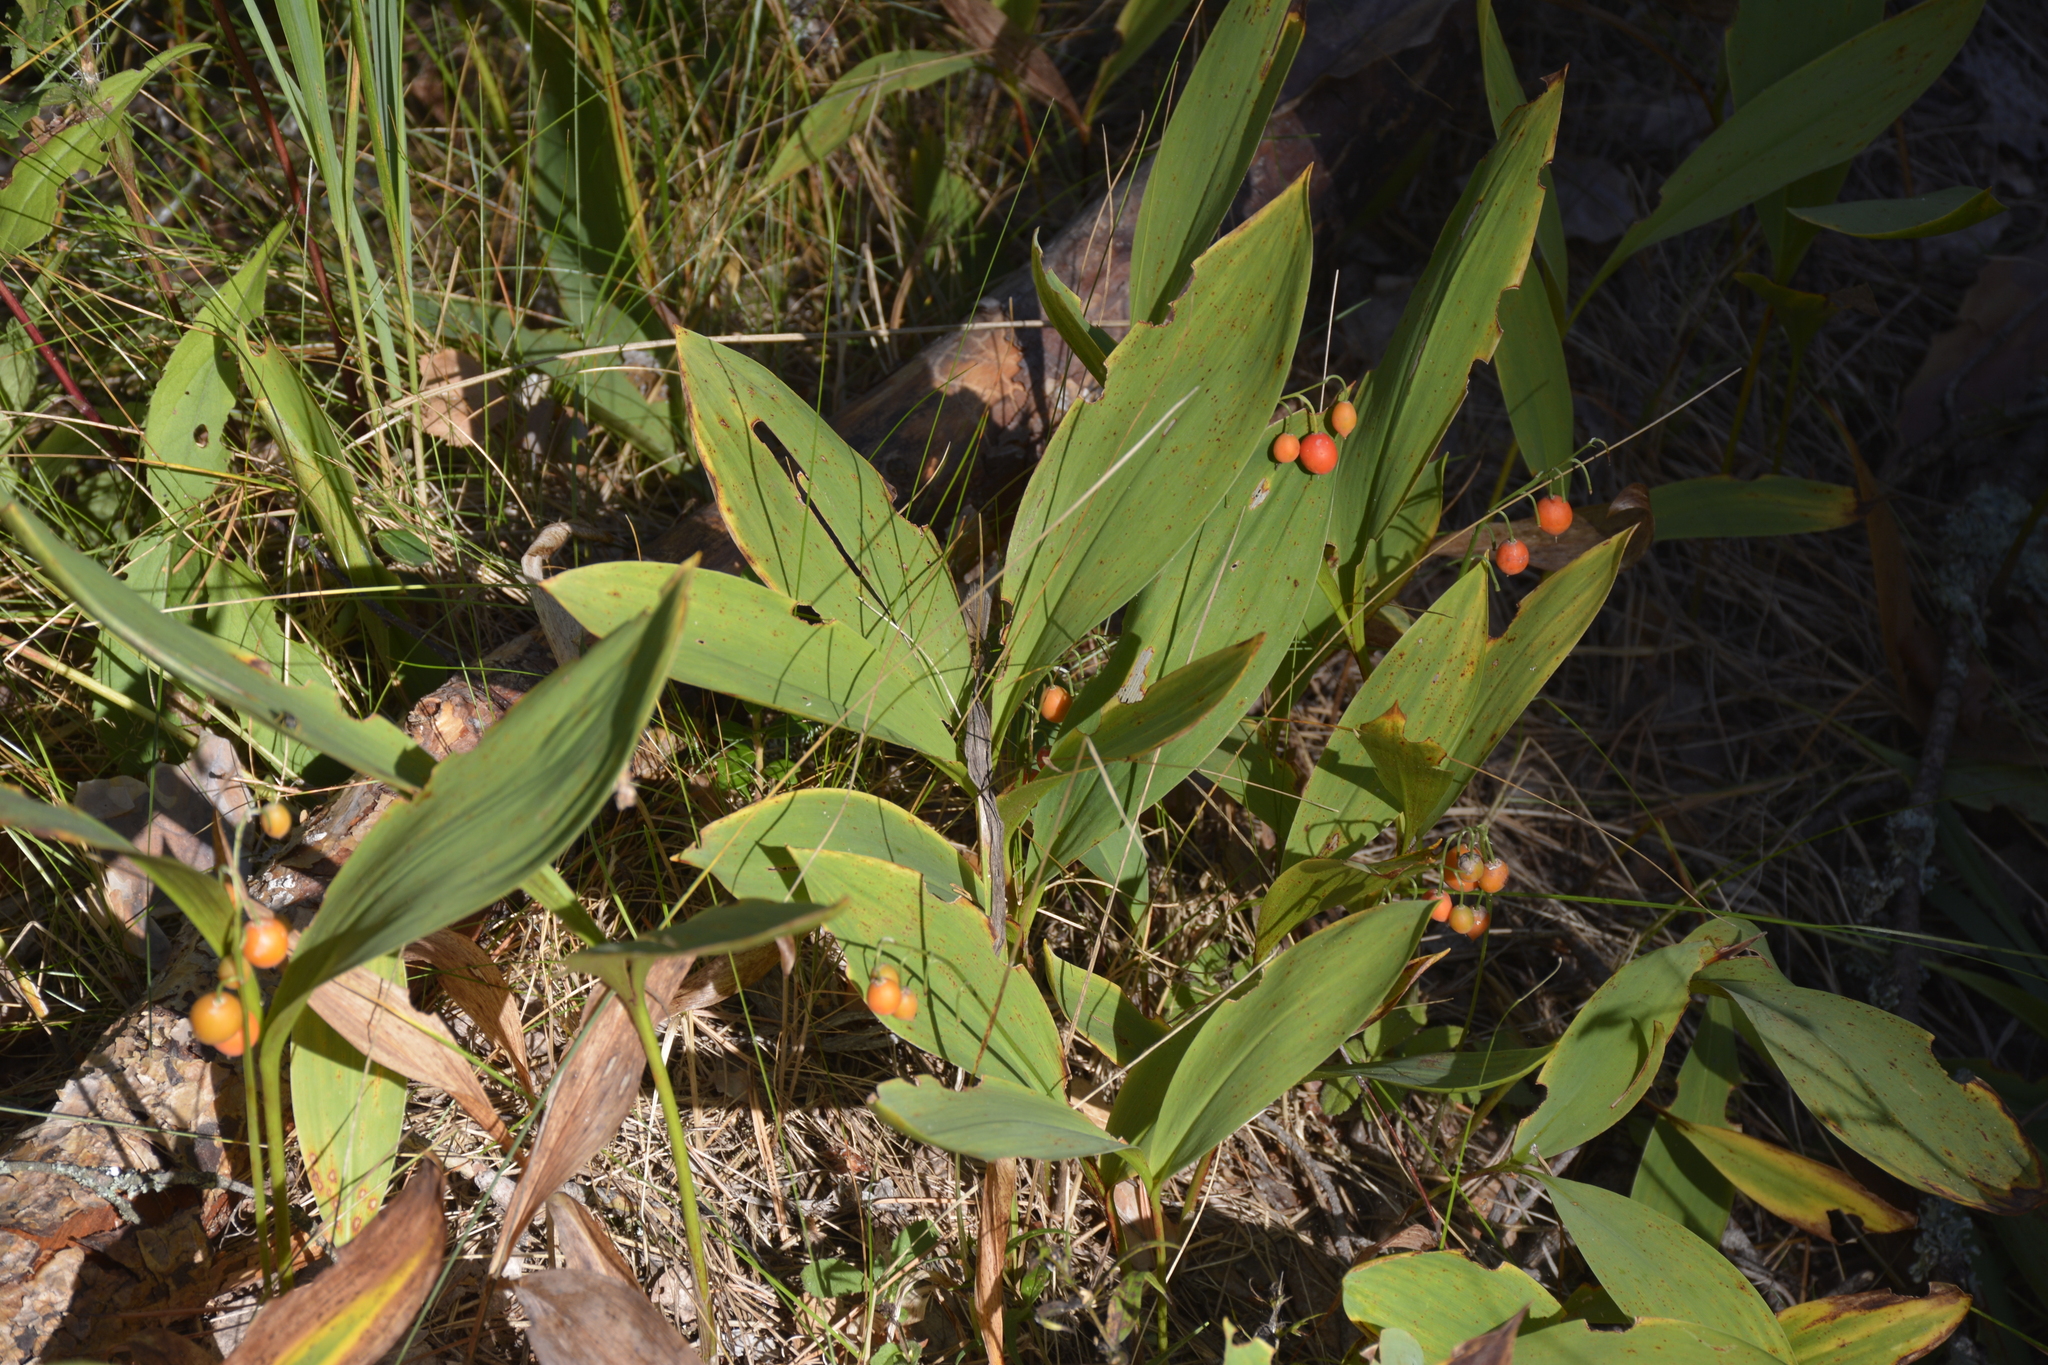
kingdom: Plantae
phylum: Tracheophyta
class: Liliopsida
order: Asparagales
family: Asparagaceae
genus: Convallaria
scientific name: Convallaria majalis
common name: Lily-of-the-valley
